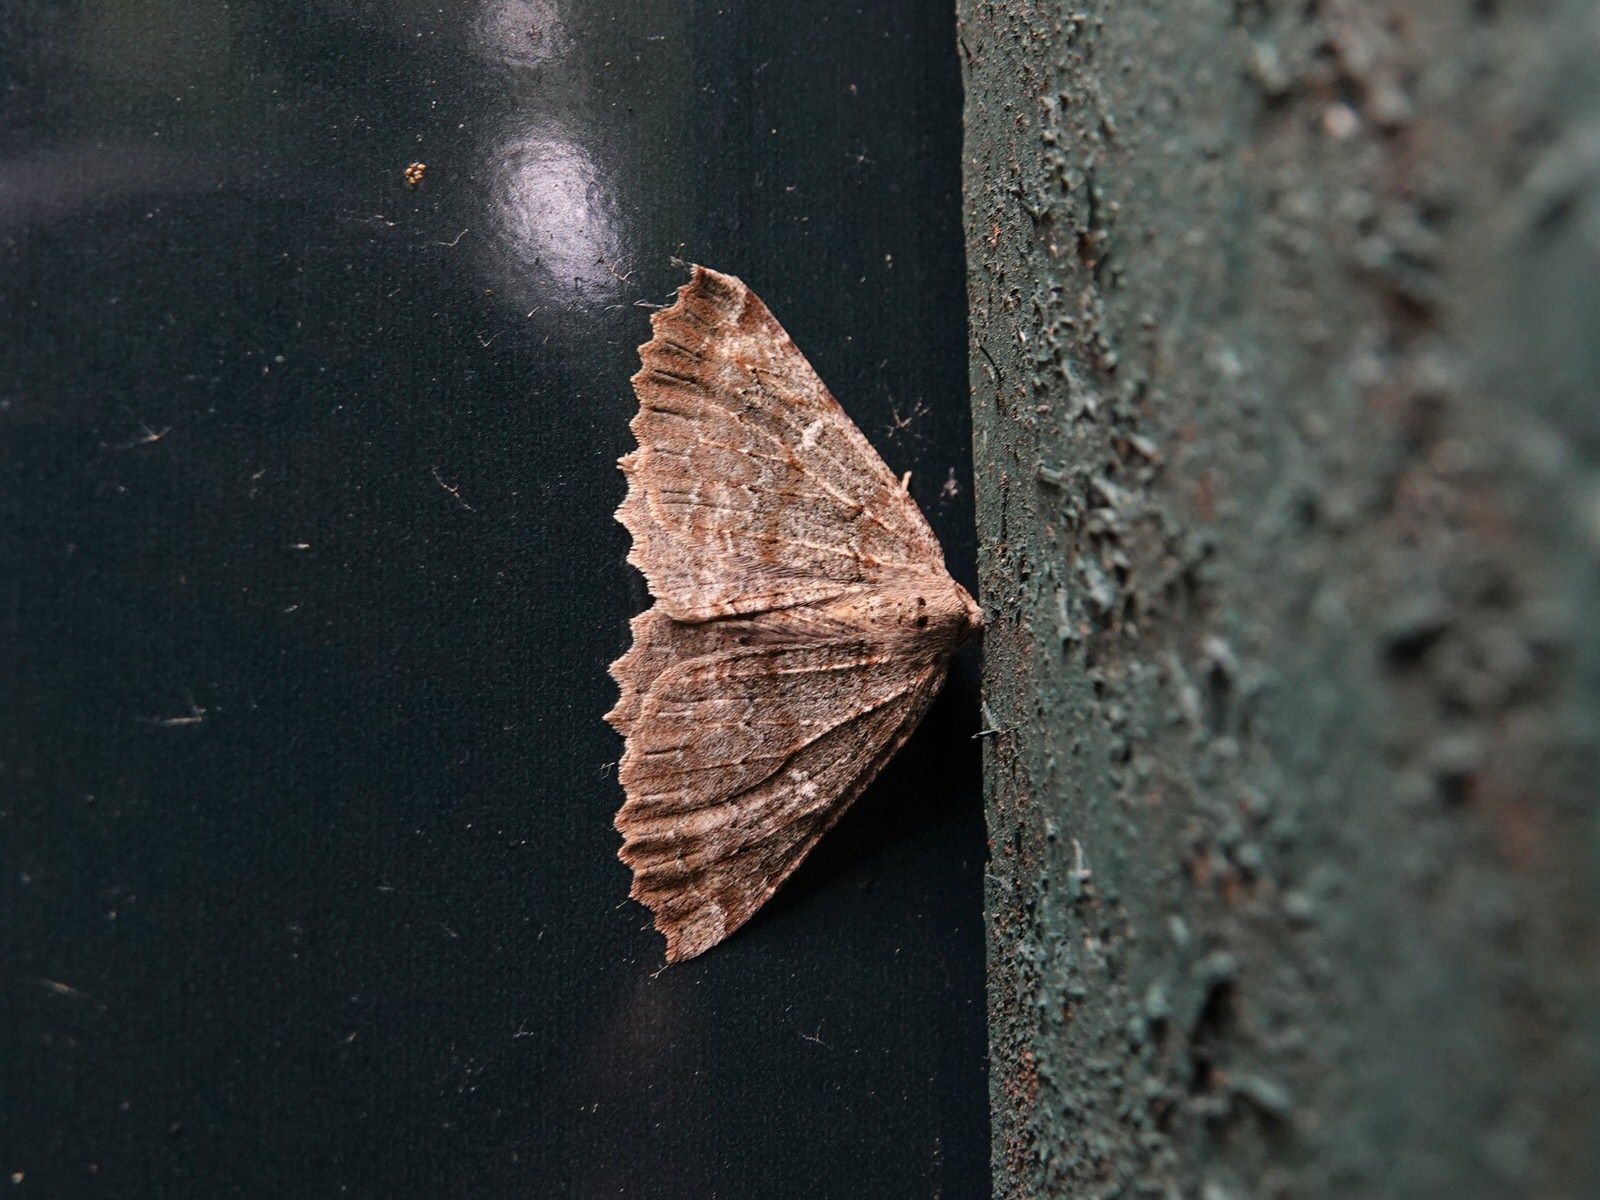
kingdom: Animalia
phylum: Arthropoda
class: Insecta
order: Lepidoptera
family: Geometridae
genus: Cleora
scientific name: Cleora scriptaria
